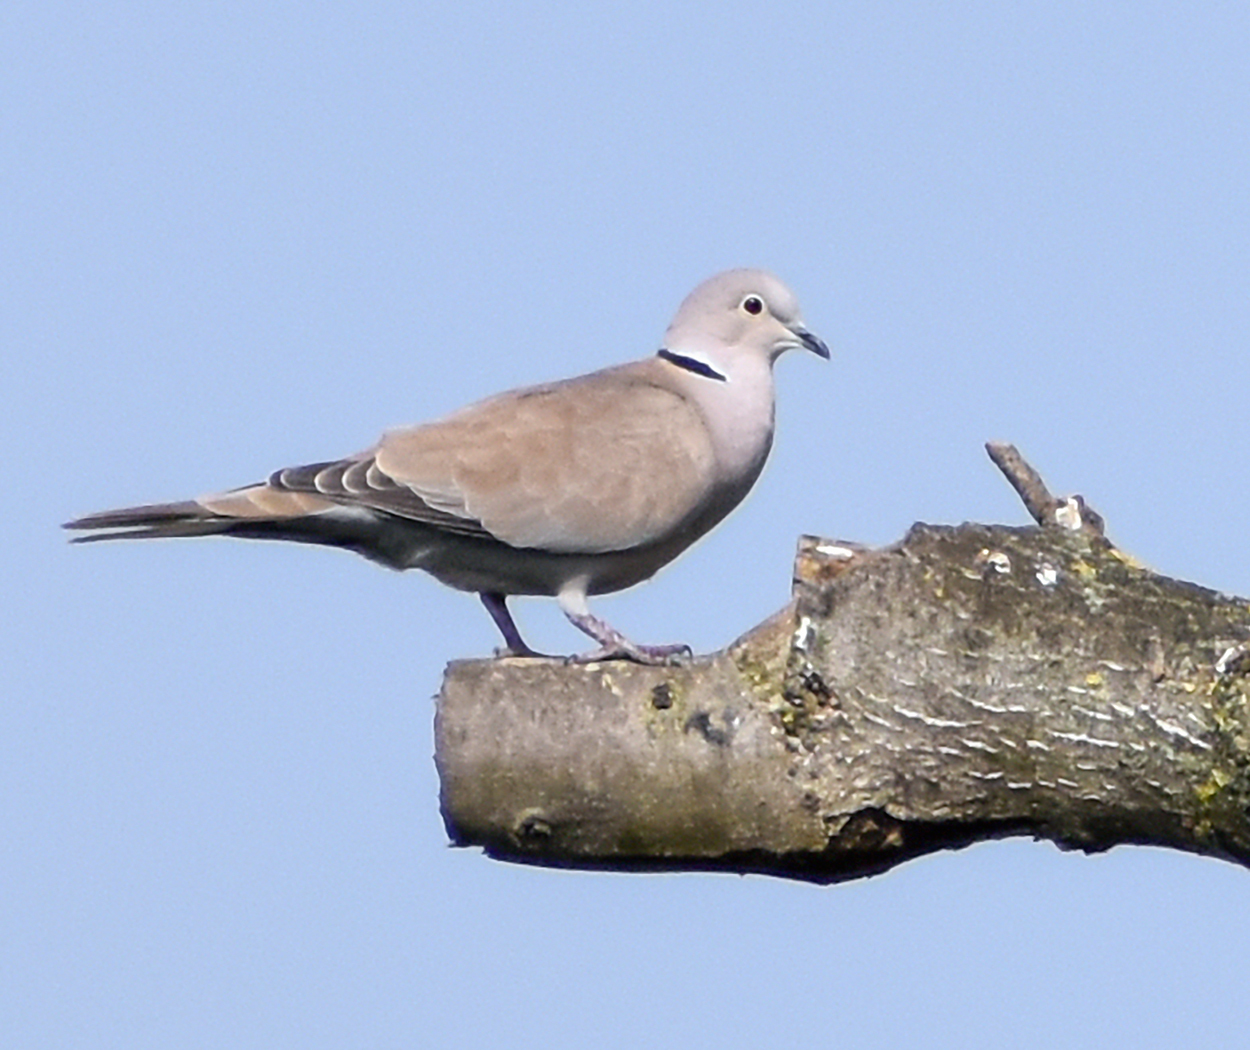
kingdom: Animalia
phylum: Chordata
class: Aves
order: Columbiformes
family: Columbidae
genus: Streptopelia
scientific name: Streptopelia decaocto
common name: Eurasian collared dove
